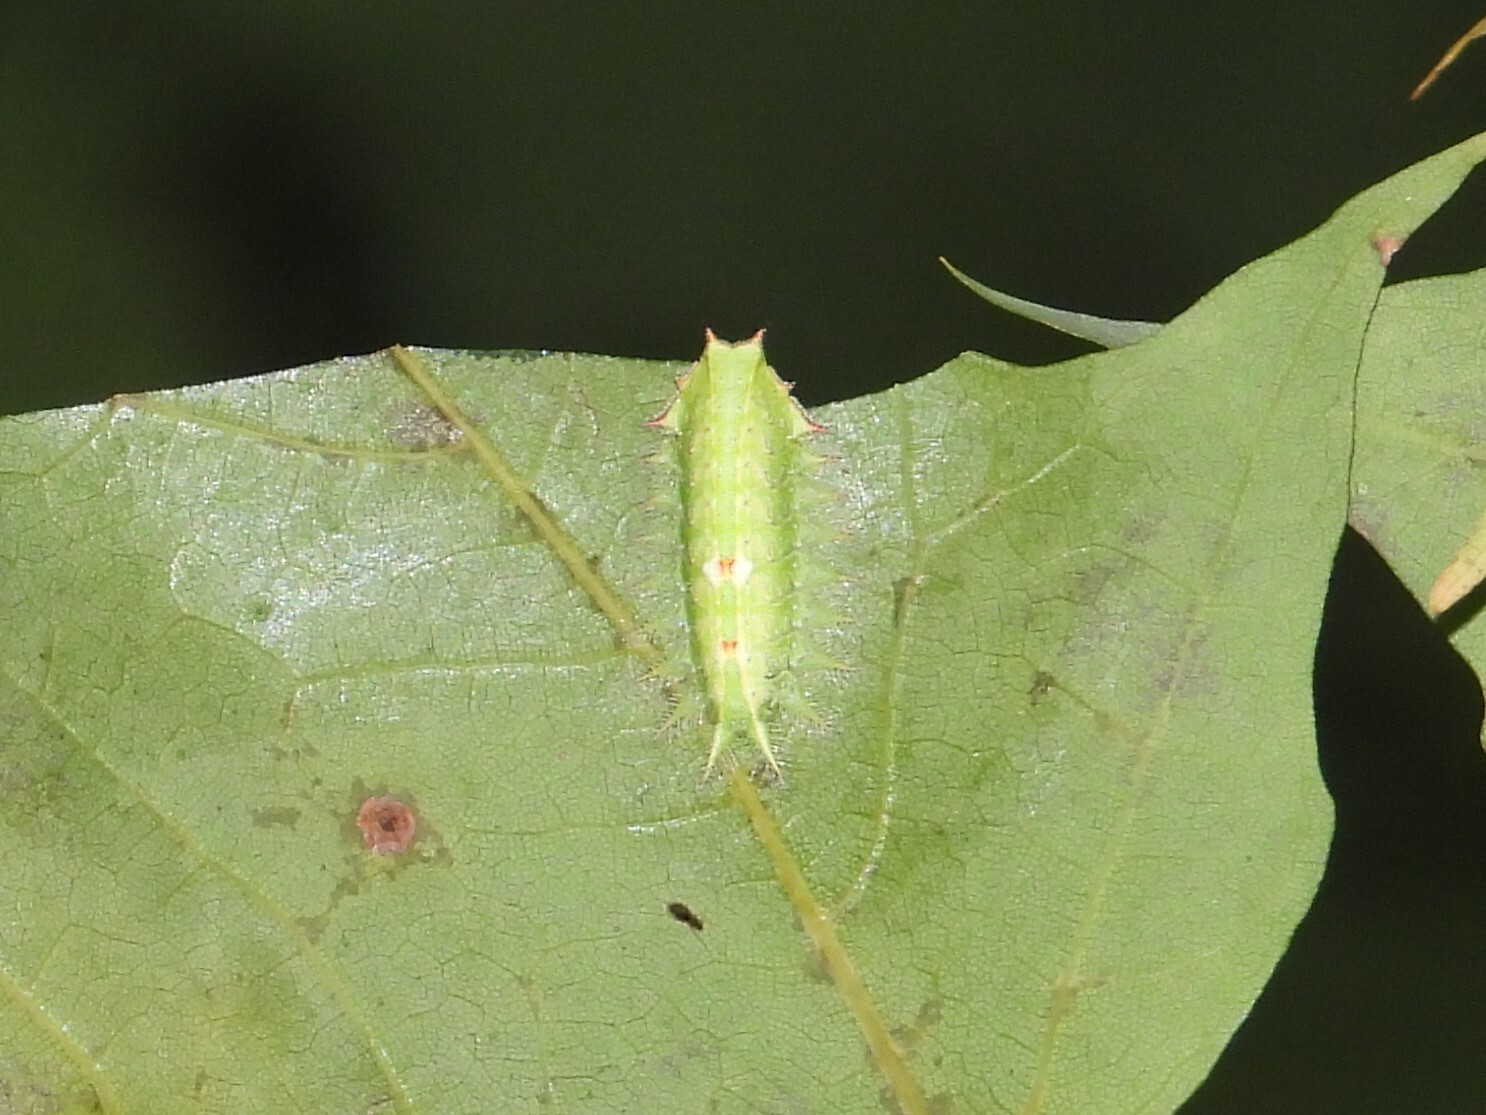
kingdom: Animalia
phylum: Arthropoda
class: Insecta
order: Lepidoptera
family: Limacodidae
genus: Isa
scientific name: Isa textula
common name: Crowned slug moth
